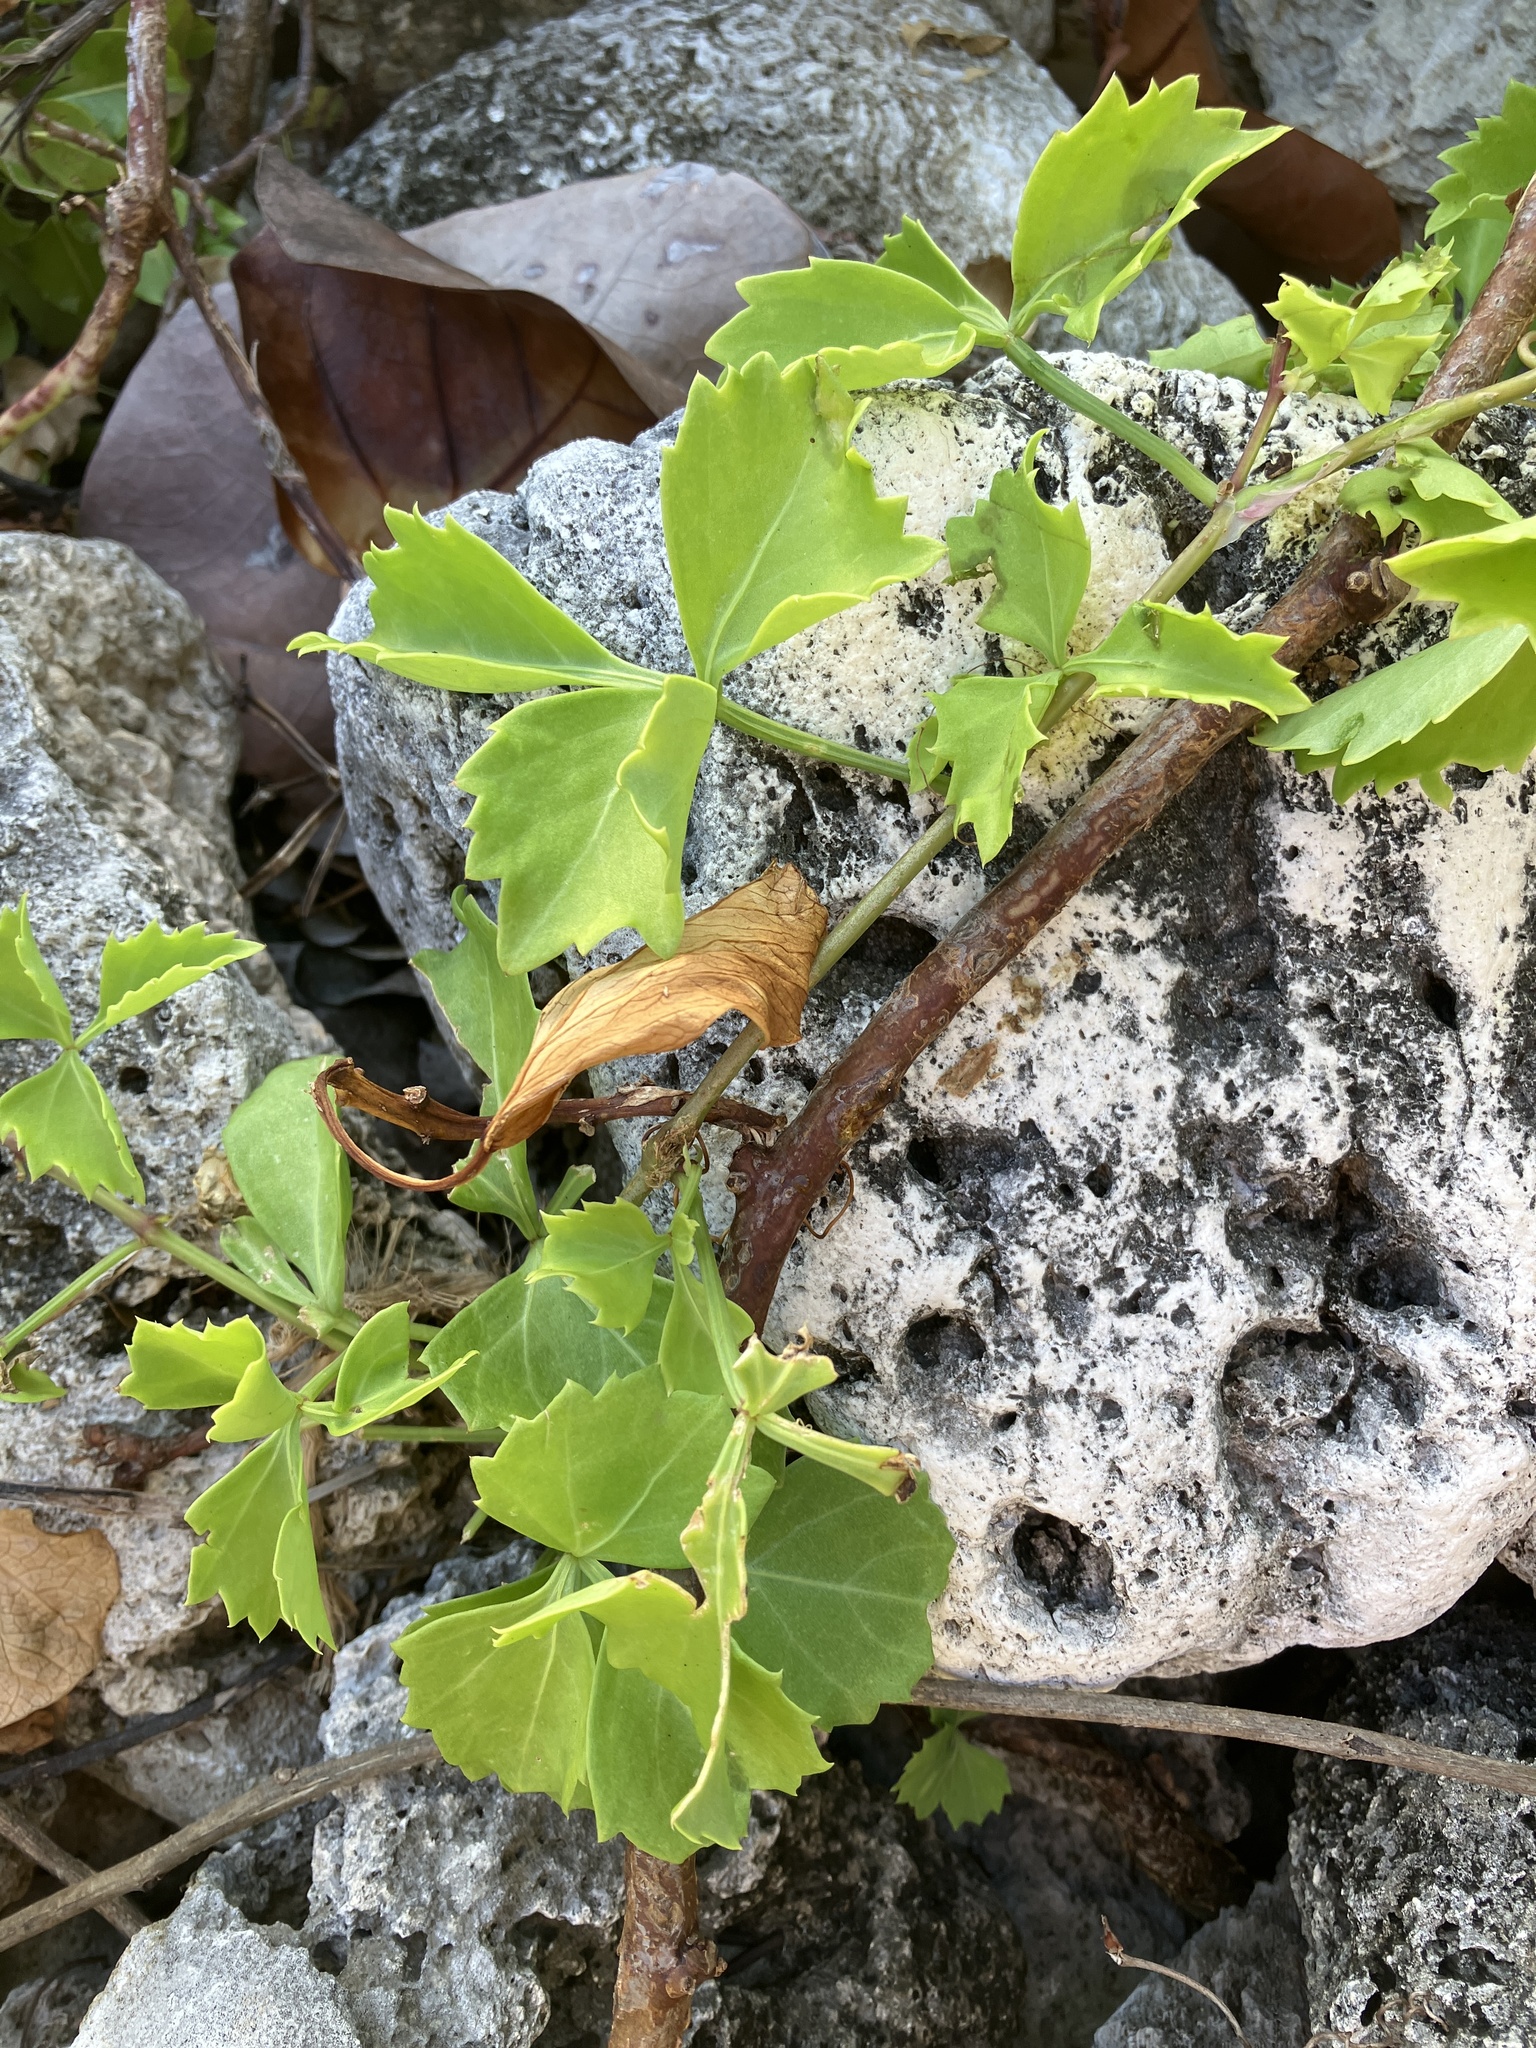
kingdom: Plantae
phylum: Tracheophyta
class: Magnoliopsida
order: Vitales
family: Vitaceae
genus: Cissus
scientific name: Cissus trifoliata
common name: Vine-sorrel
